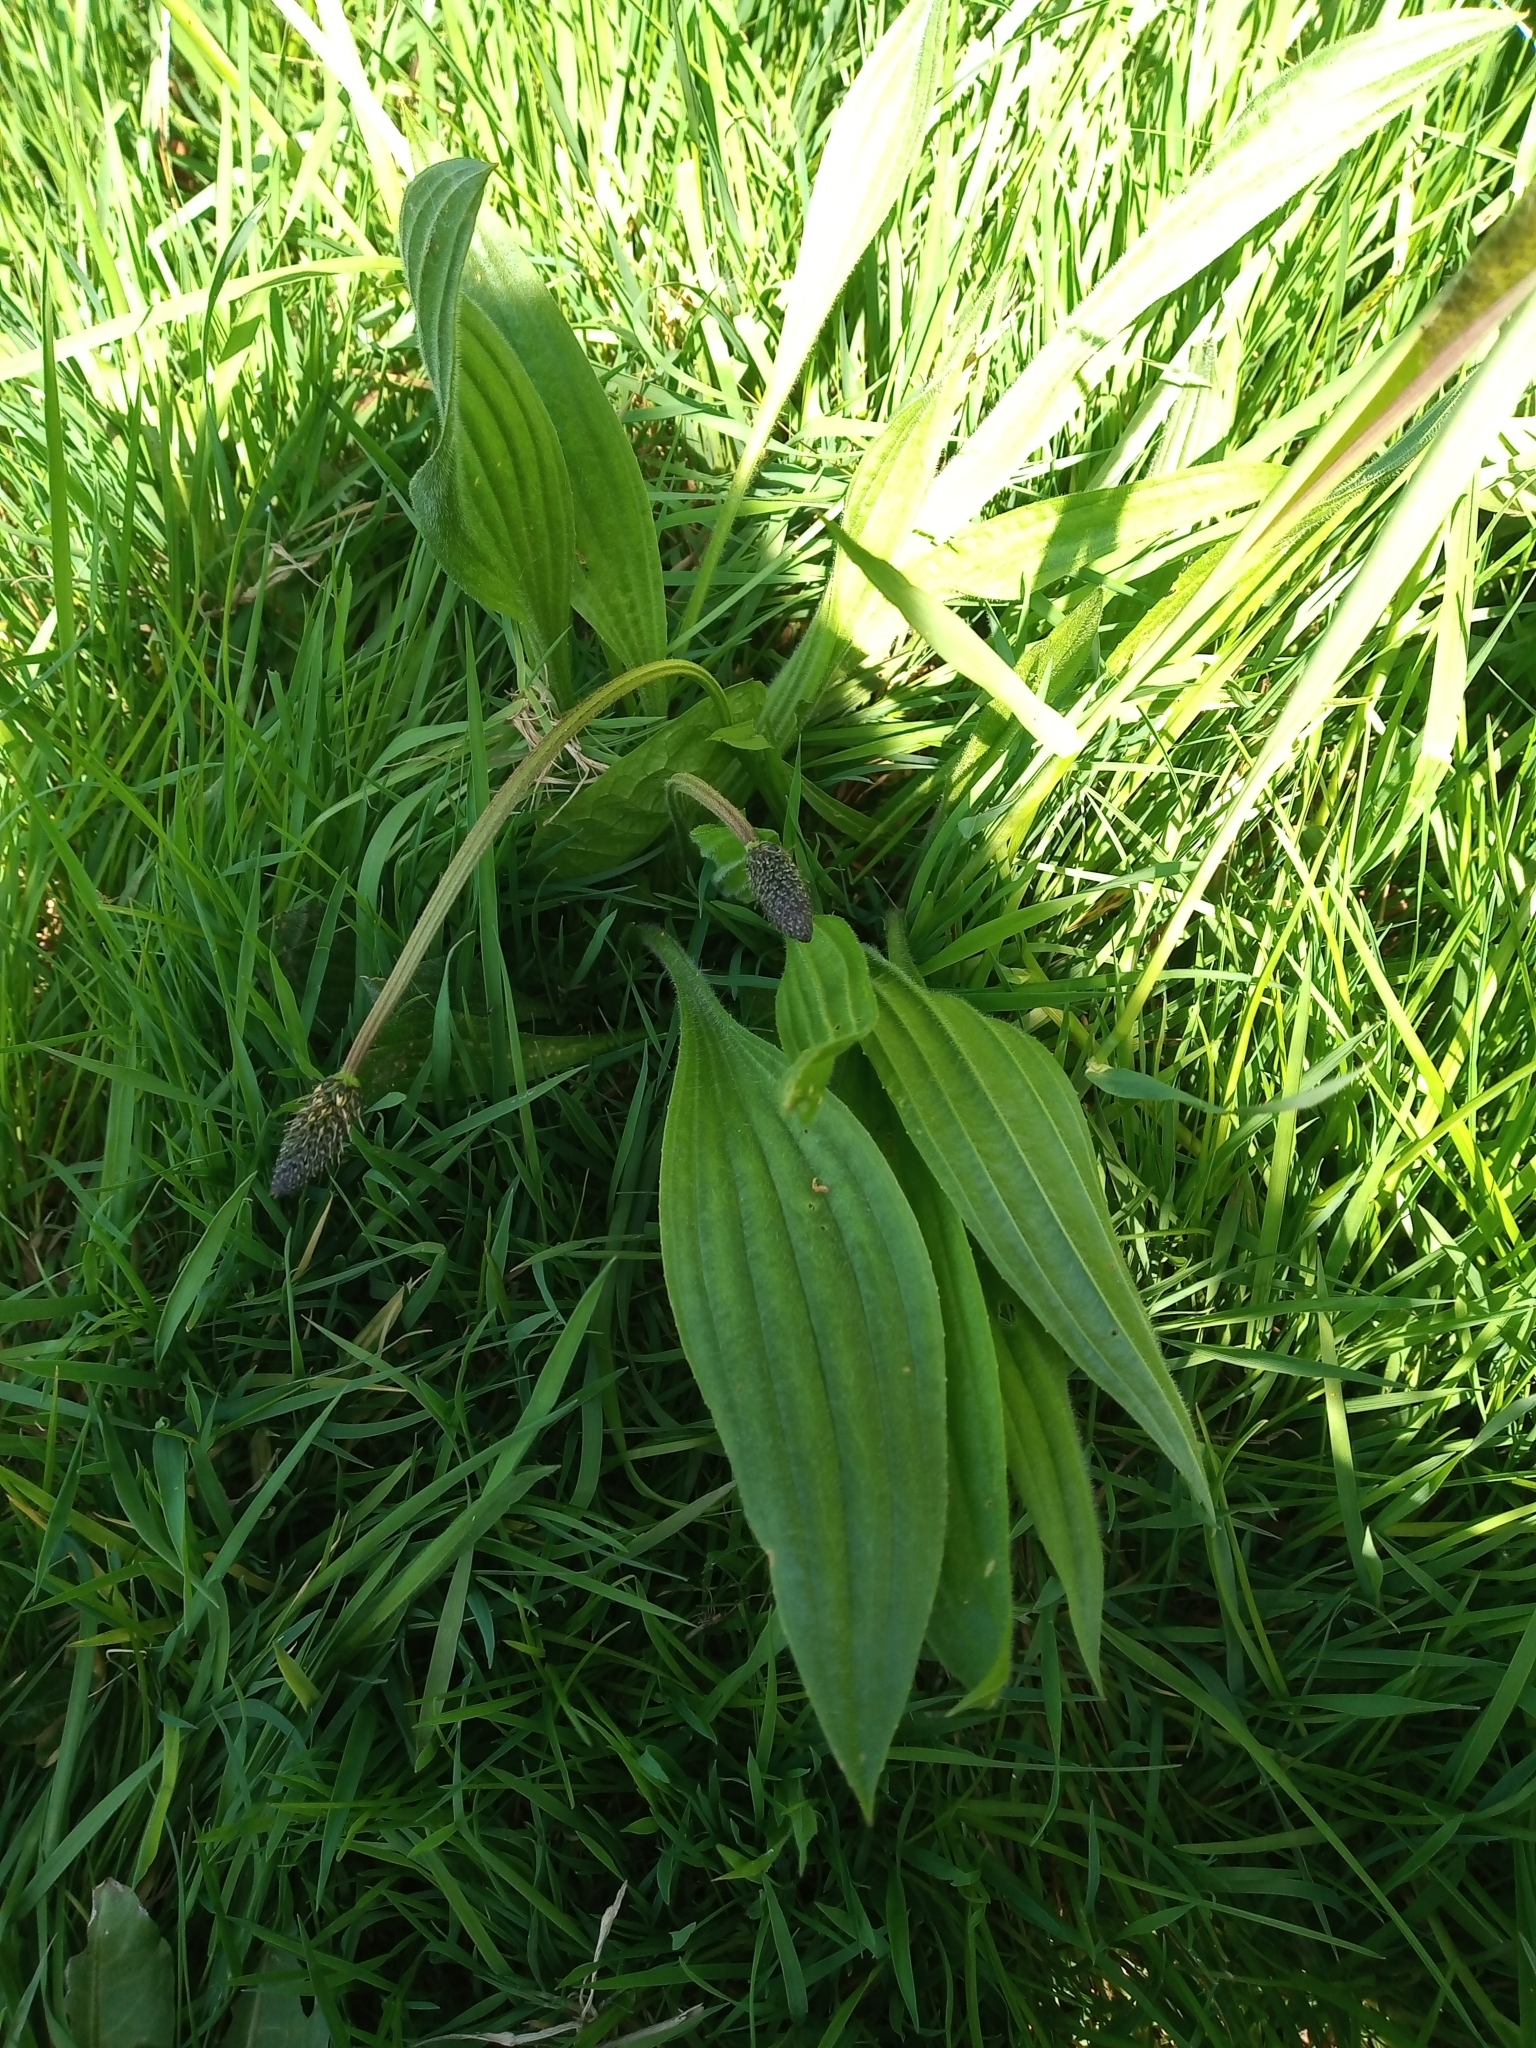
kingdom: Plantae
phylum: Tracheophyta
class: Magnoliopsida
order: Lamiales
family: Plantaginaceae
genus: Plantago
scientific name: Plantago lanceolata
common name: Ribwort plantain
